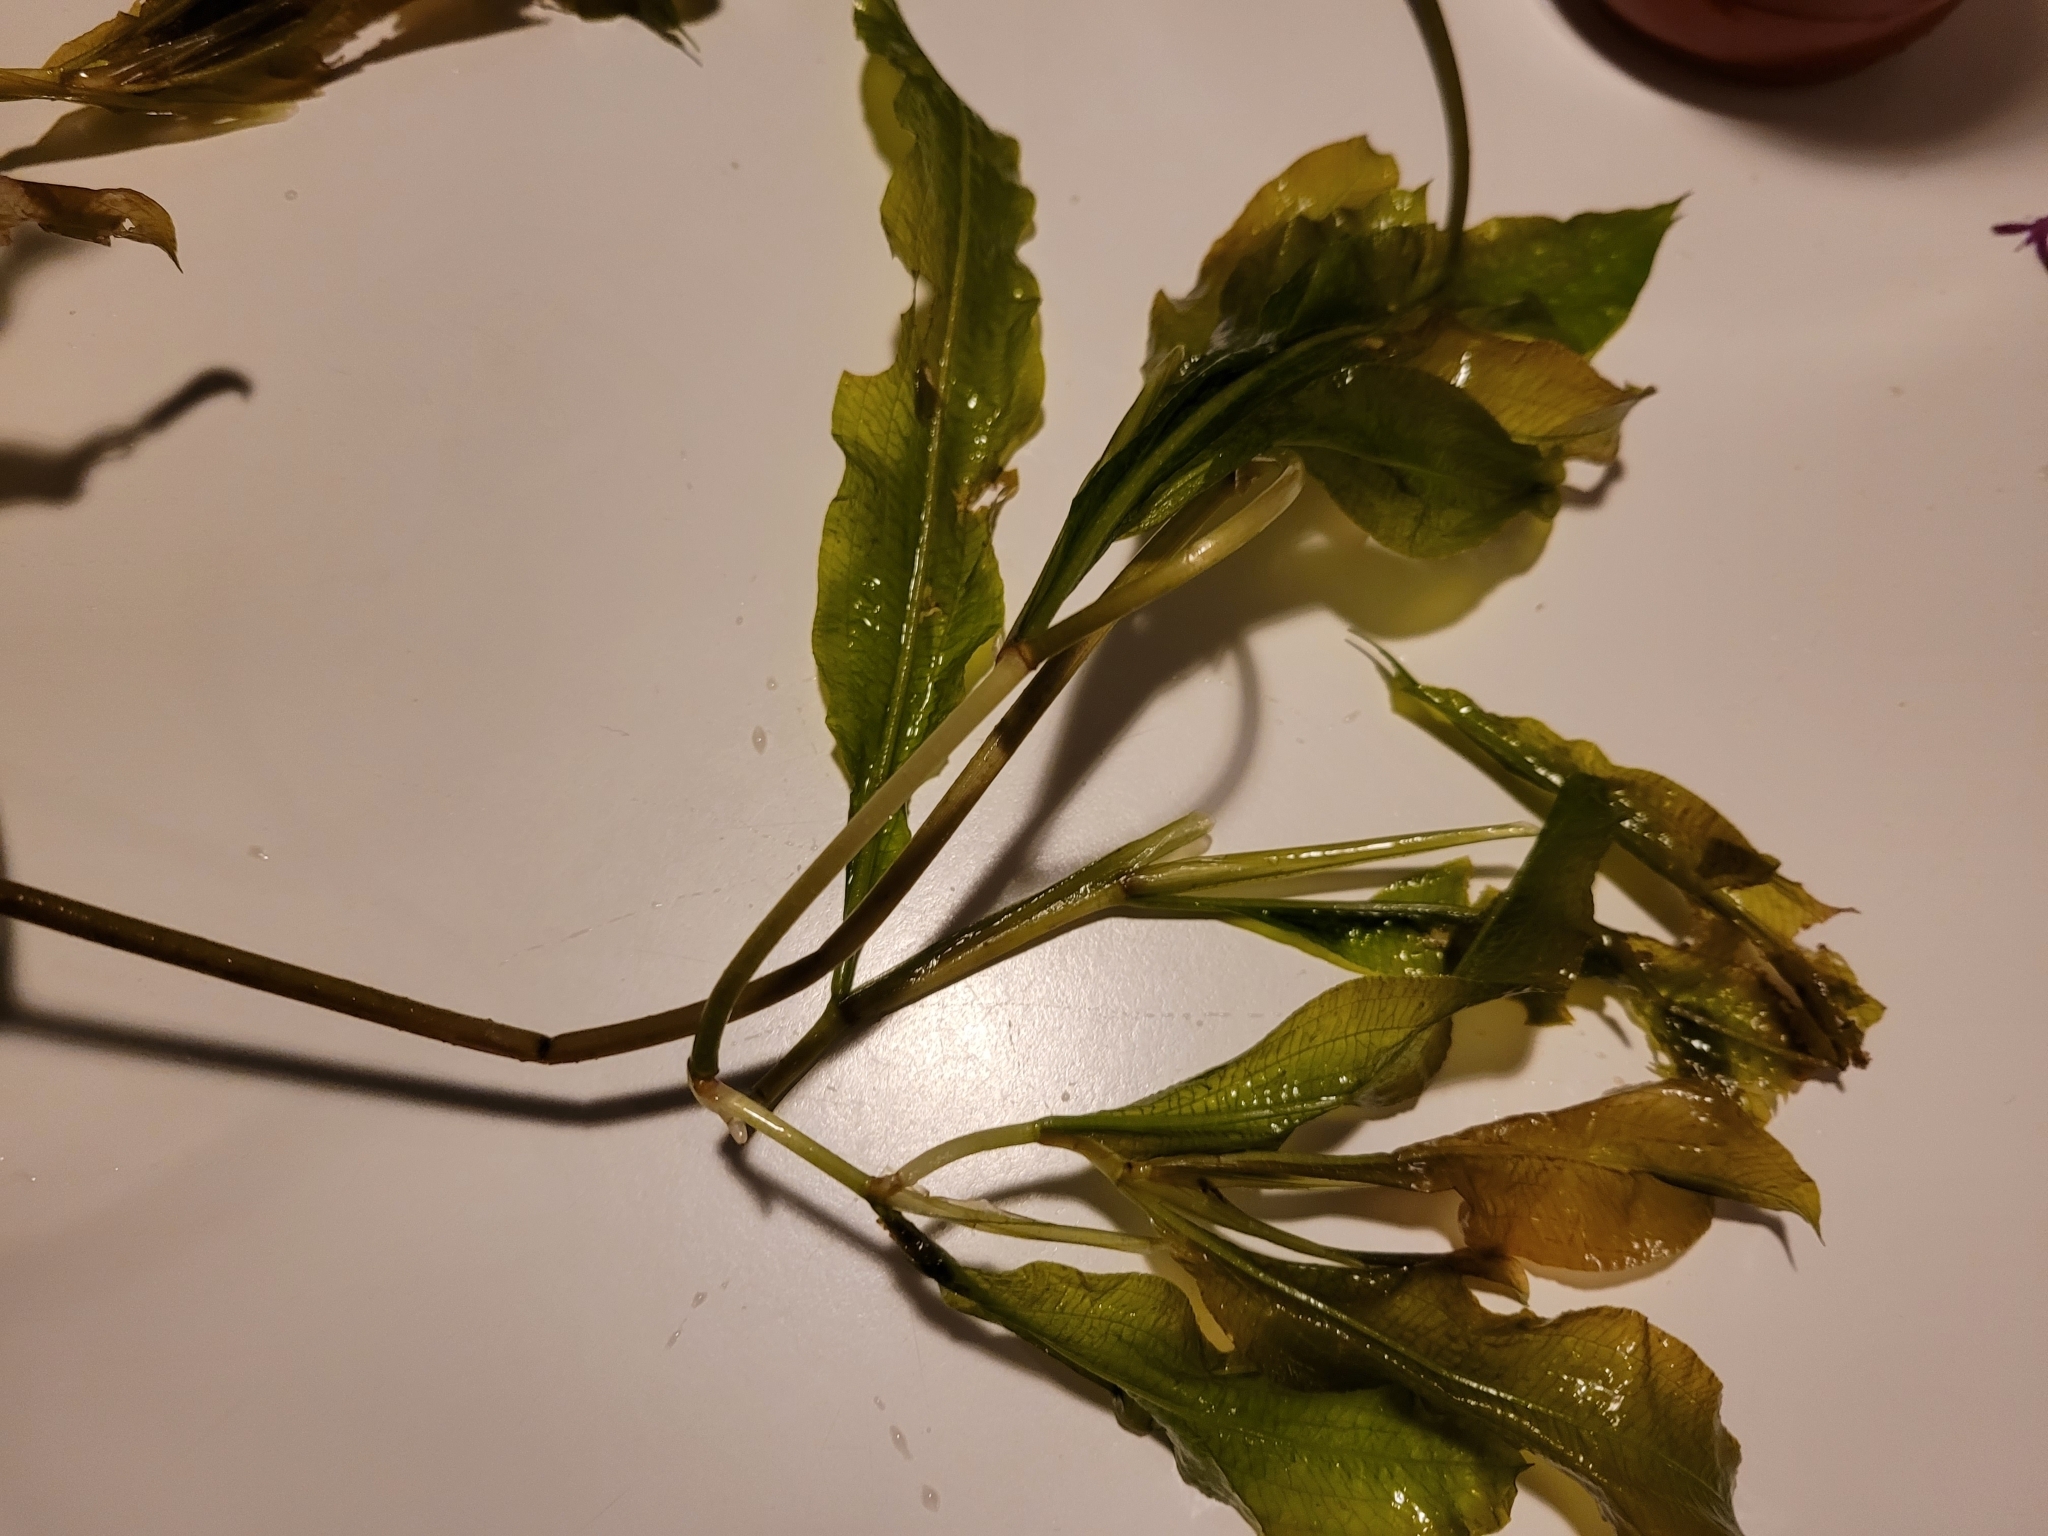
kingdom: Plantae
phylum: Tracheophyta
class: Liliopsida
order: Alismatales
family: Potamogetonaceae
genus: Potamogeton
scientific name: Potamogeton lucens
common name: Shining pondweed
